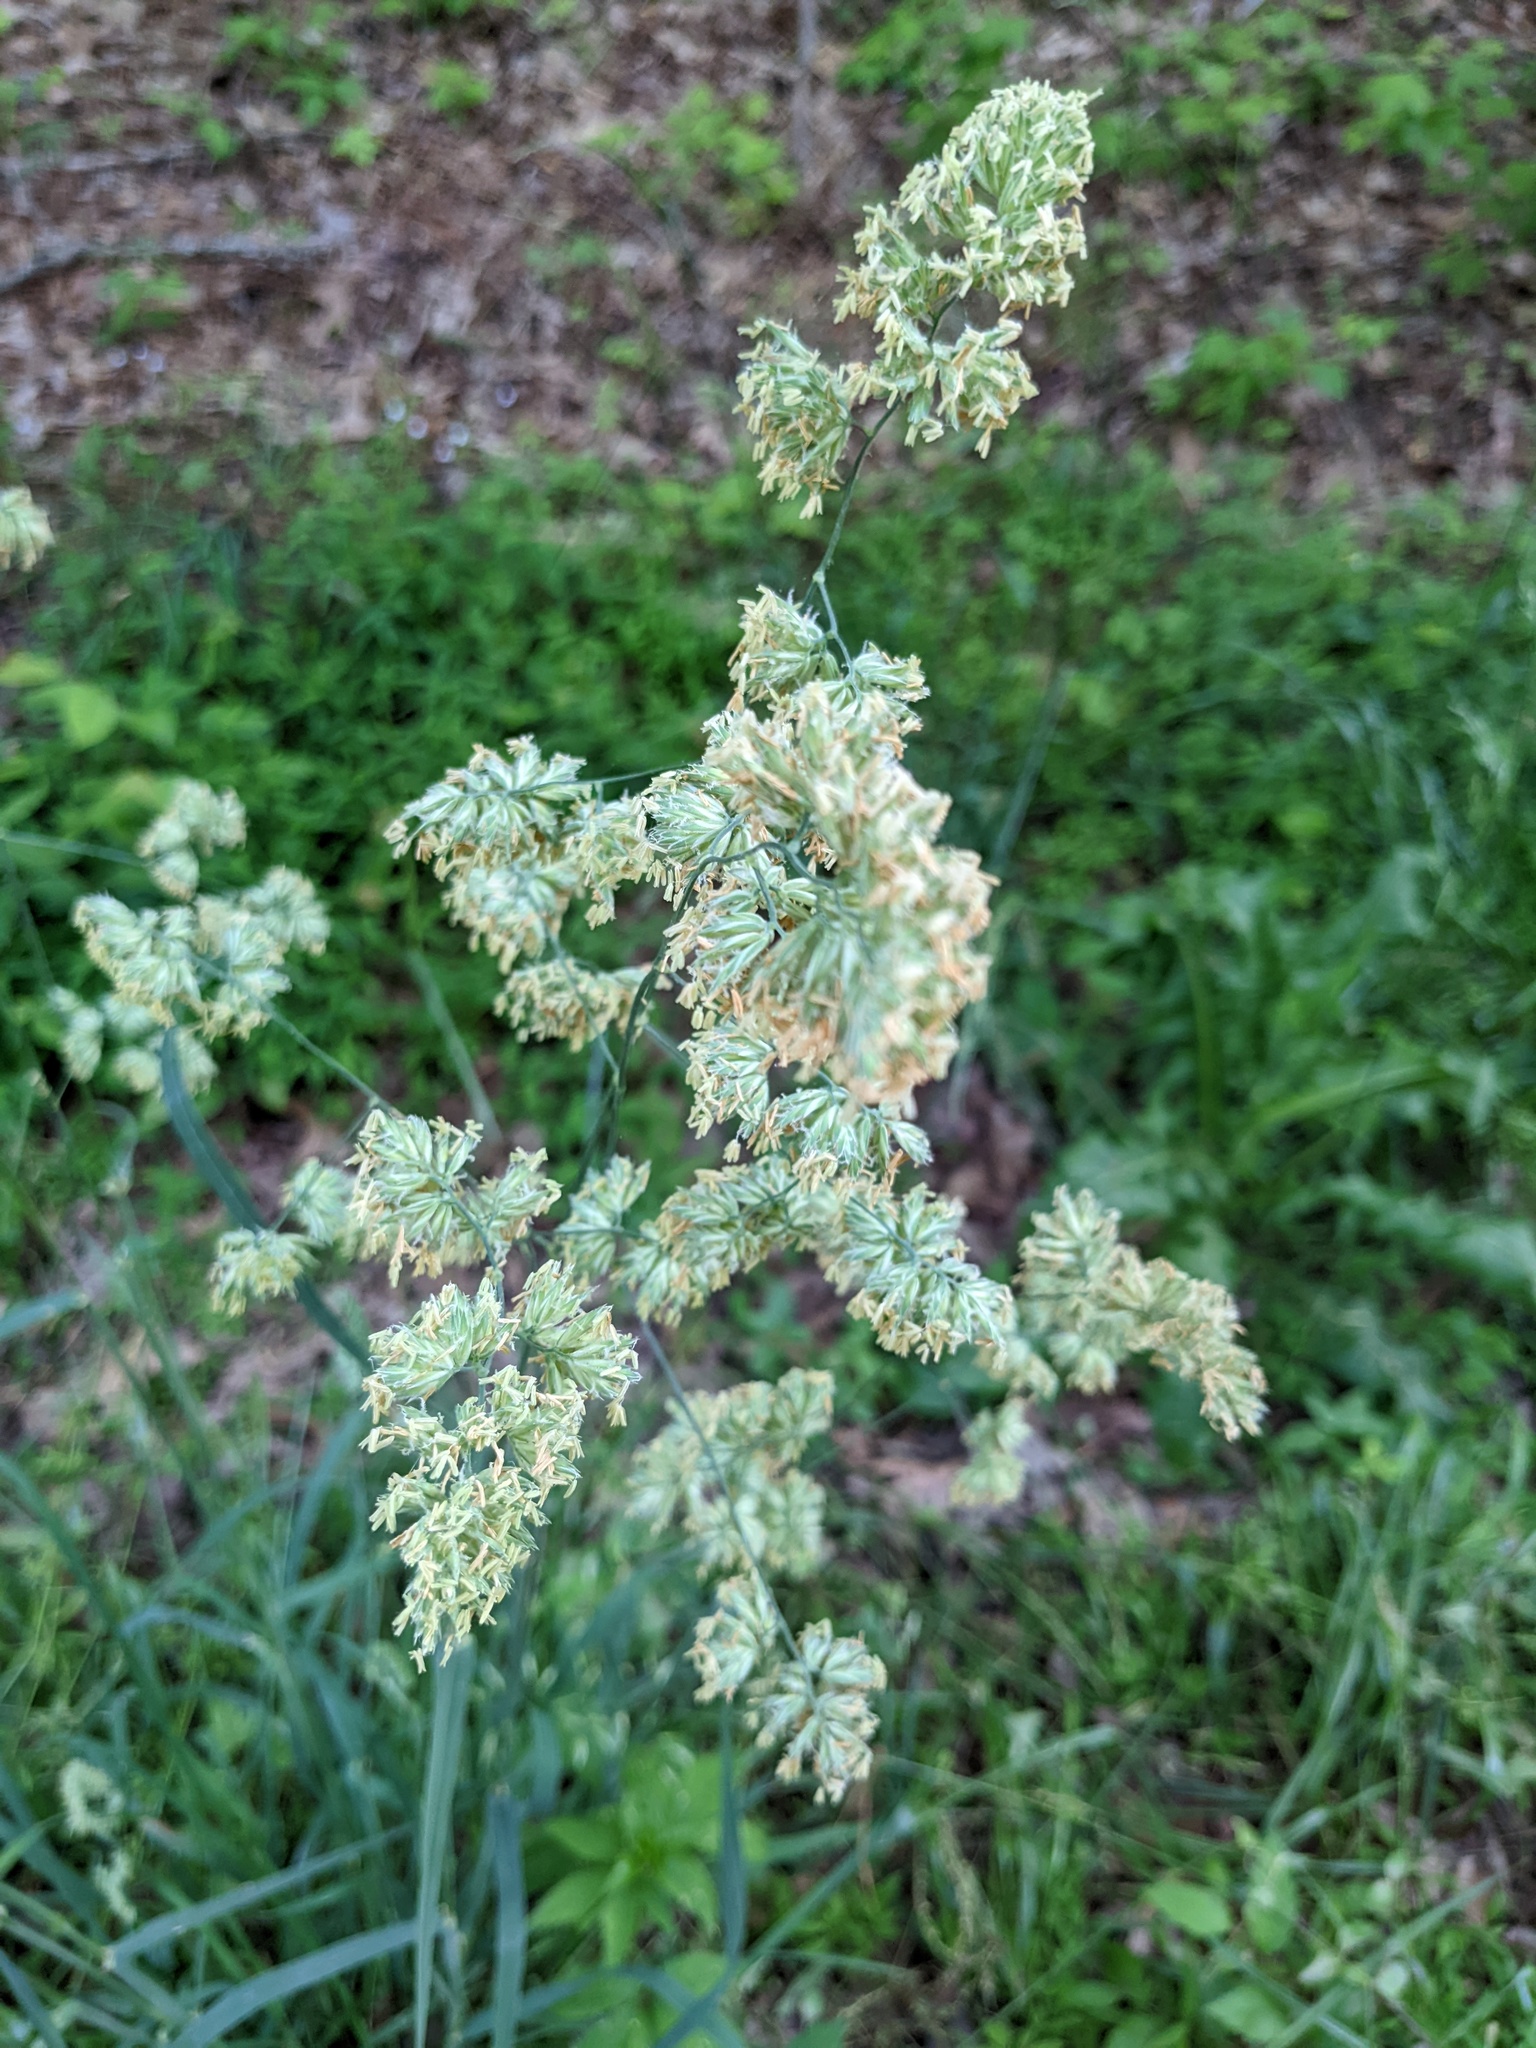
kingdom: Plantae
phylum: Tracheophyta
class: Liliopsida
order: Poales
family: Poaceae
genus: Dactylis
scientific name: Dactylis glomerata
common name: Orchardgrass
